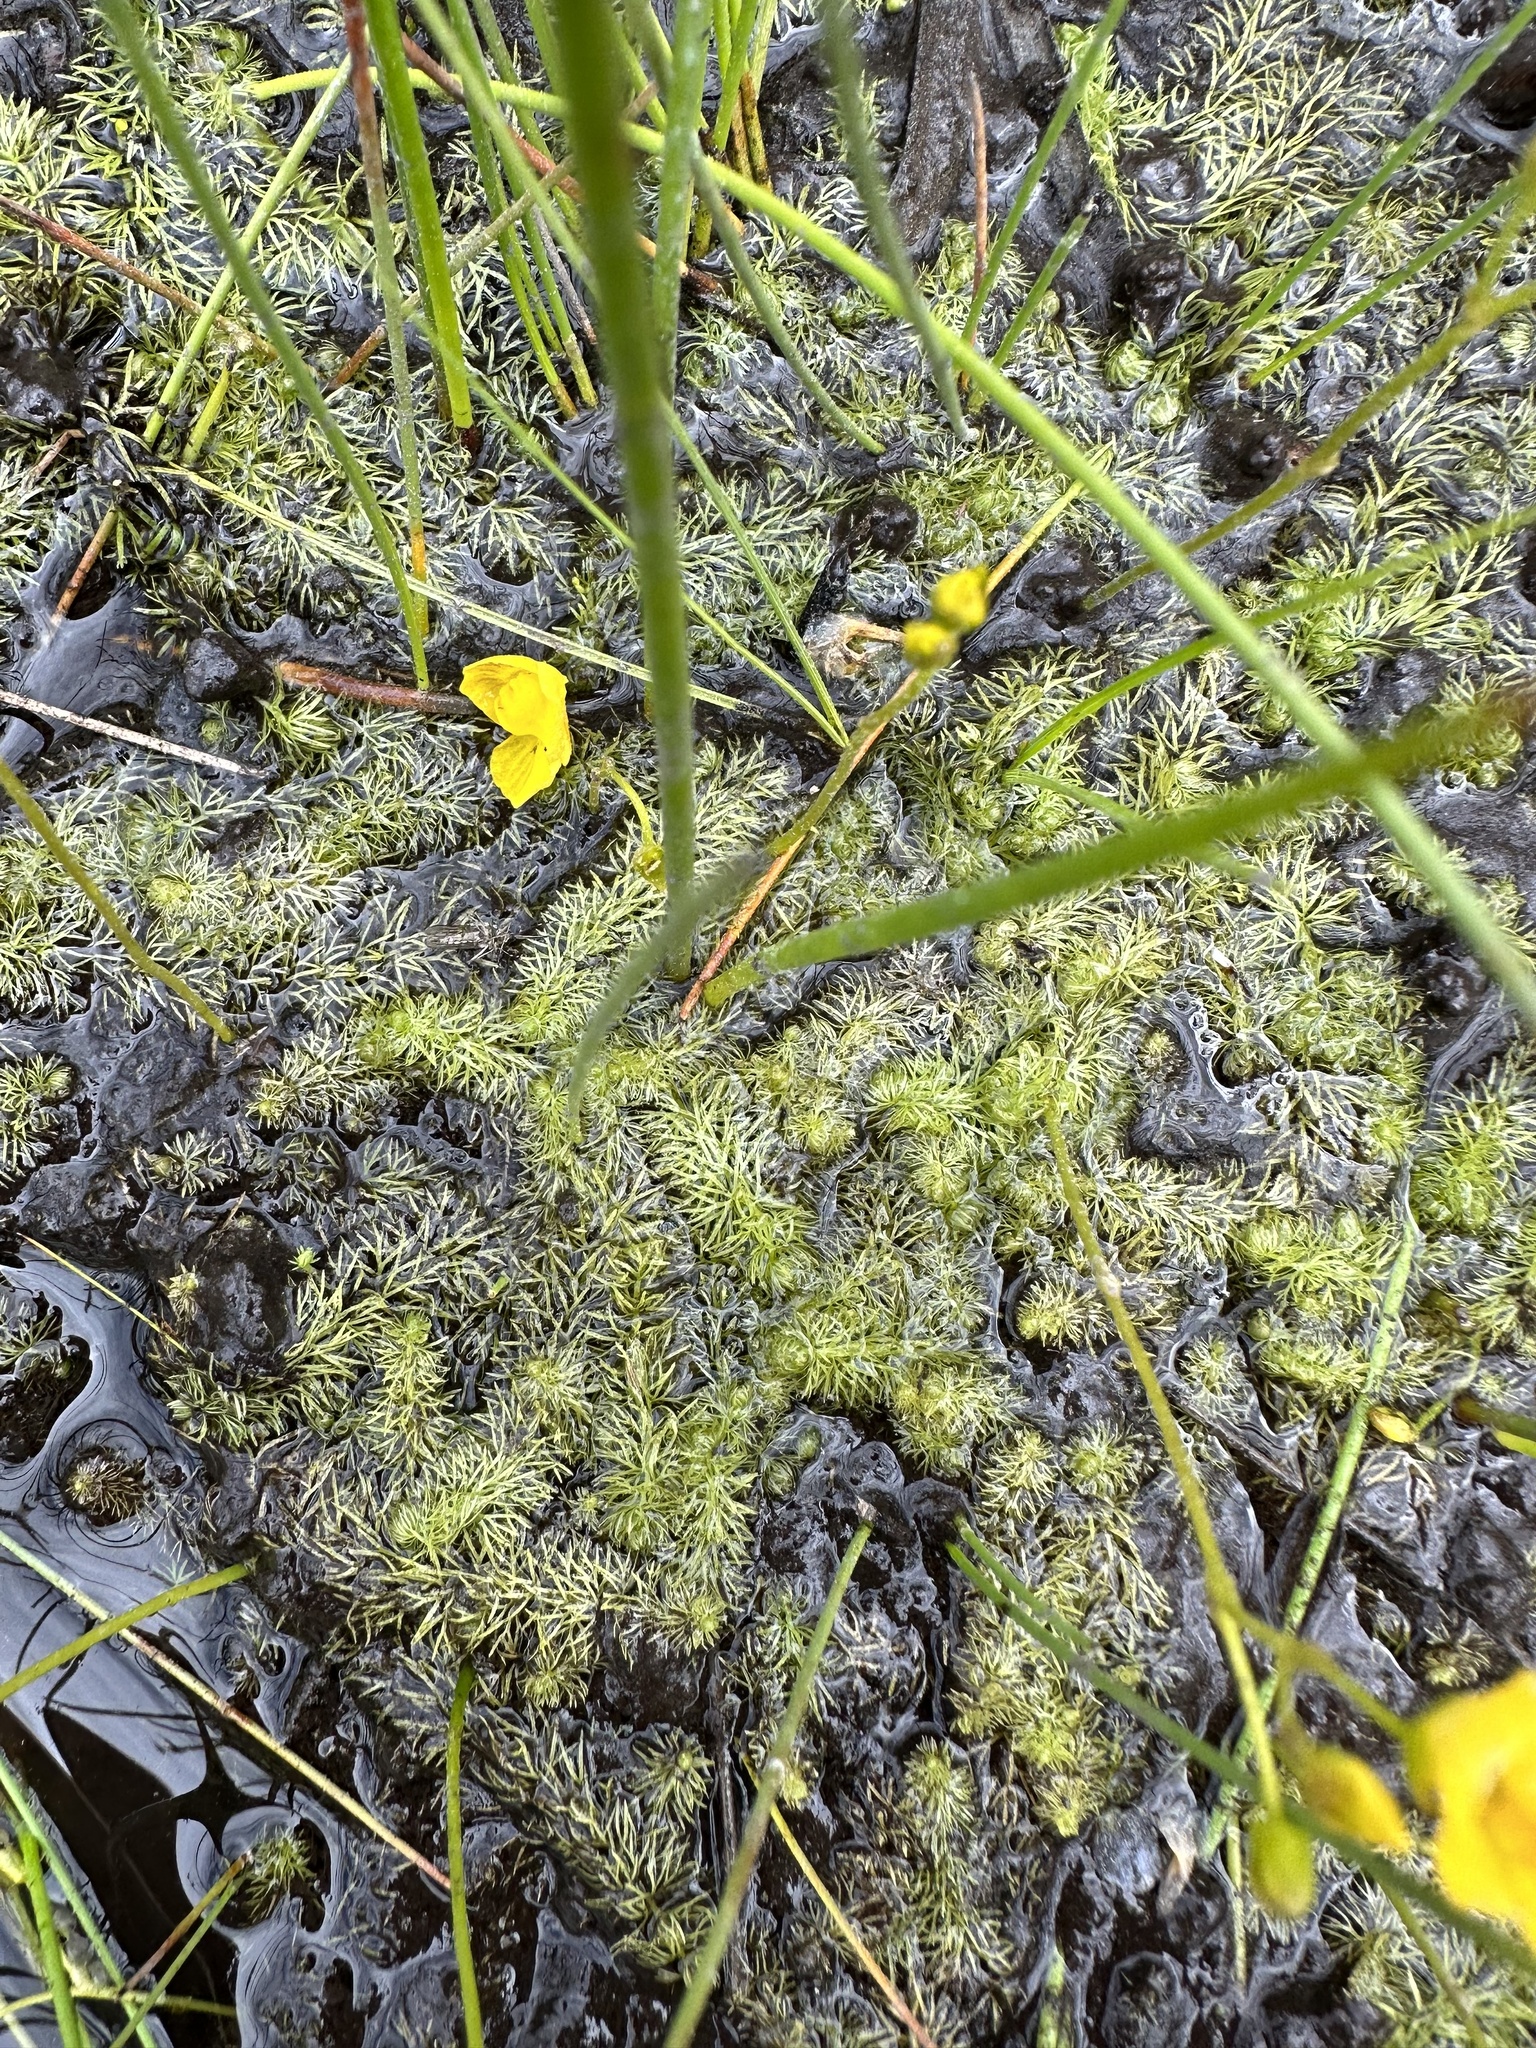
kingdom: Plantae
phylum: Tracheophyta
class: Magnoliopsida
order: Lamiales
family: Lentibulariaceae
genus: Utricularia
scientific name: Utricularia intermedia
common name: Intermediate bladderwort
